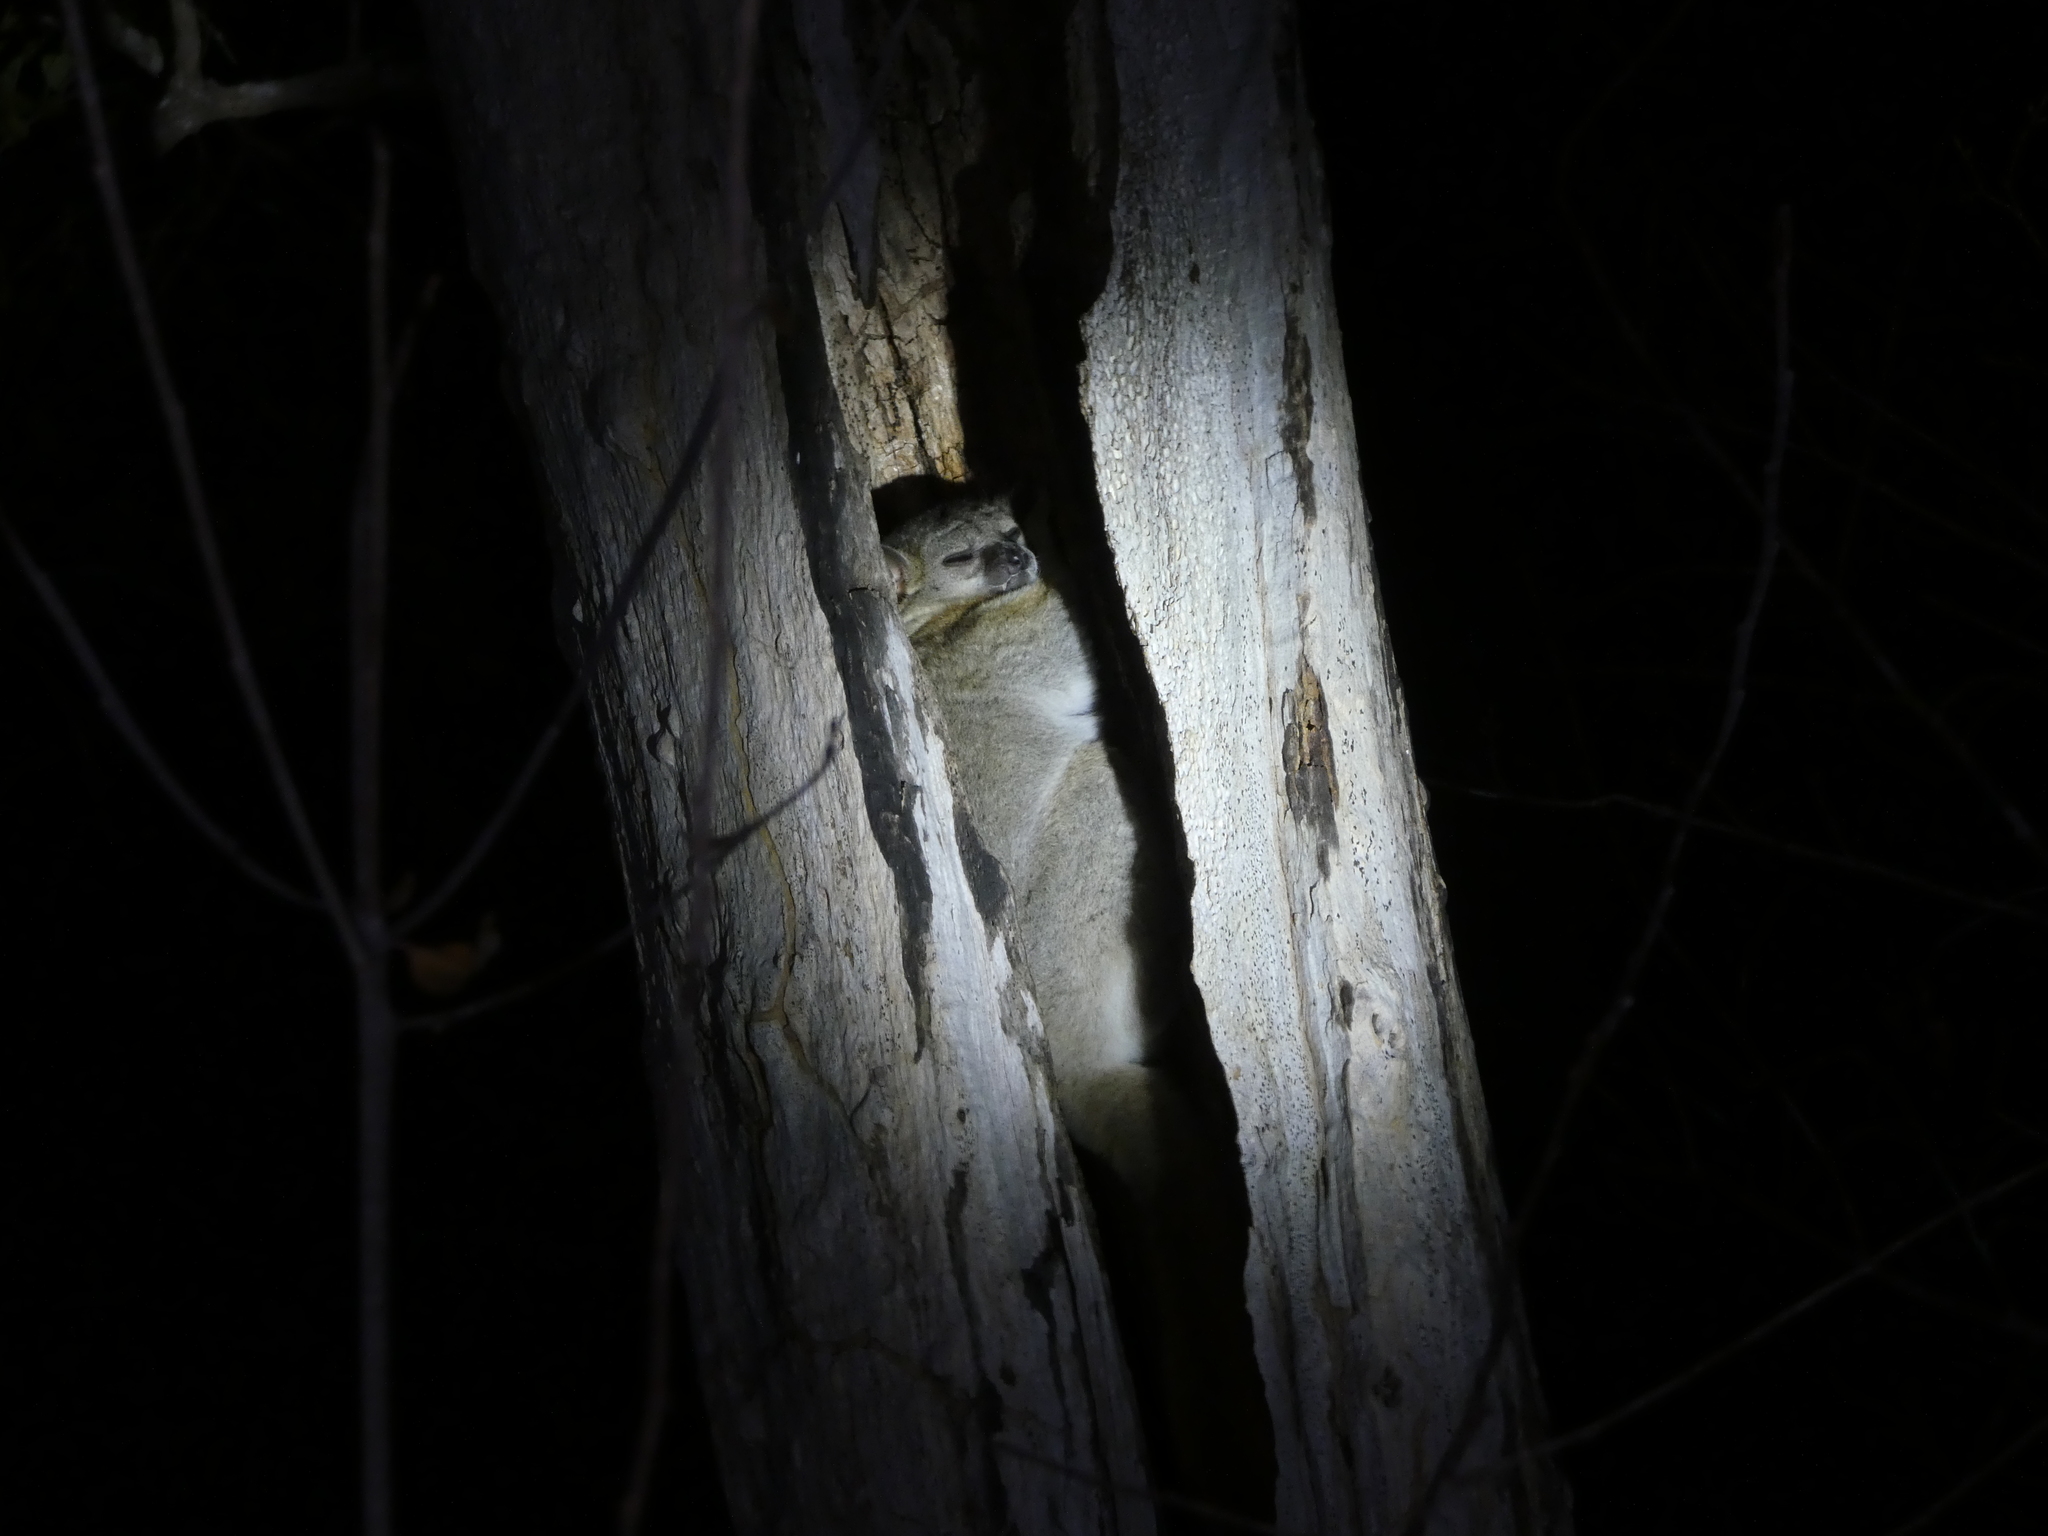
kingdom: Animalia
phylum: Chordata
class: Mammalia
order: Primates
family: Lepilemuridae
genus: Lepilemur
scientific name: Lepilemur ruficaudatus
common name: Red-tailed sportive lemur
